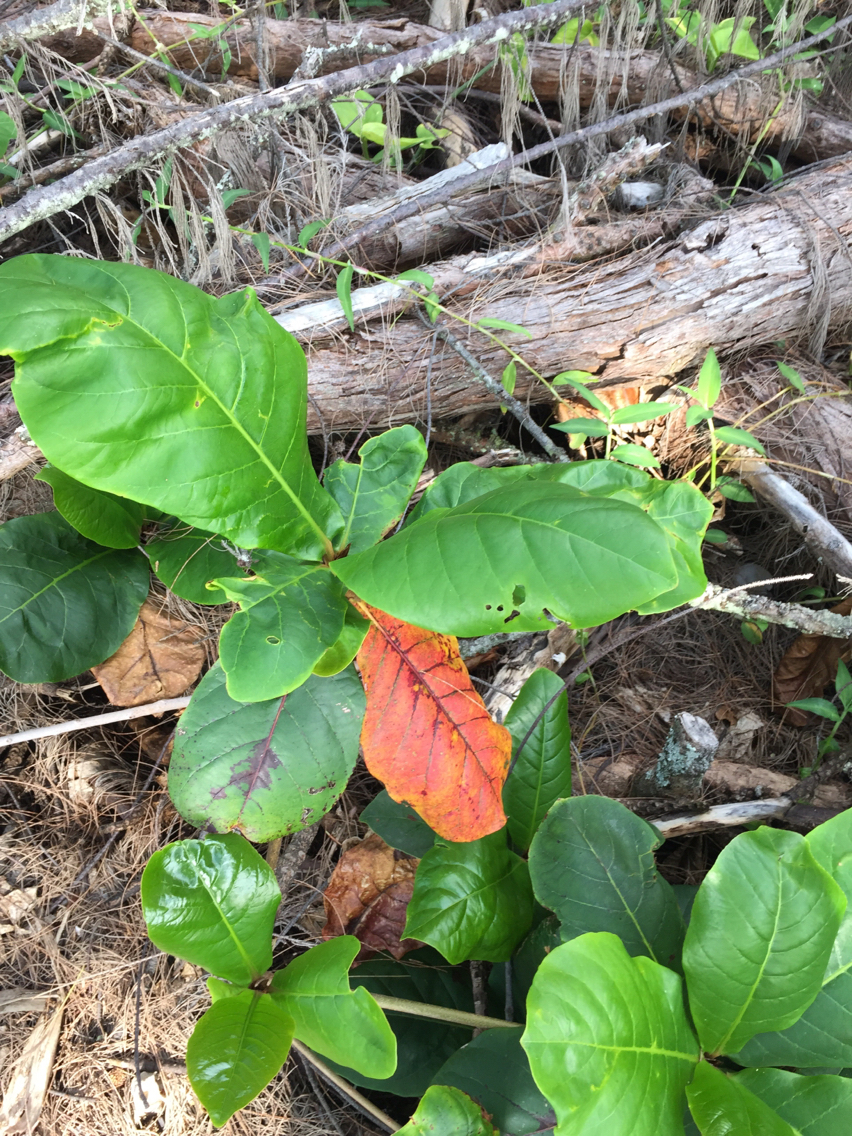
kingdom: Plantae
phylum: Tracheophyta
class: Magnoliopsida
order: Myrtales
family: Combretaceae
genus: Terminalia
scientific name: Terminalia catappa
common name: Tropical almond
